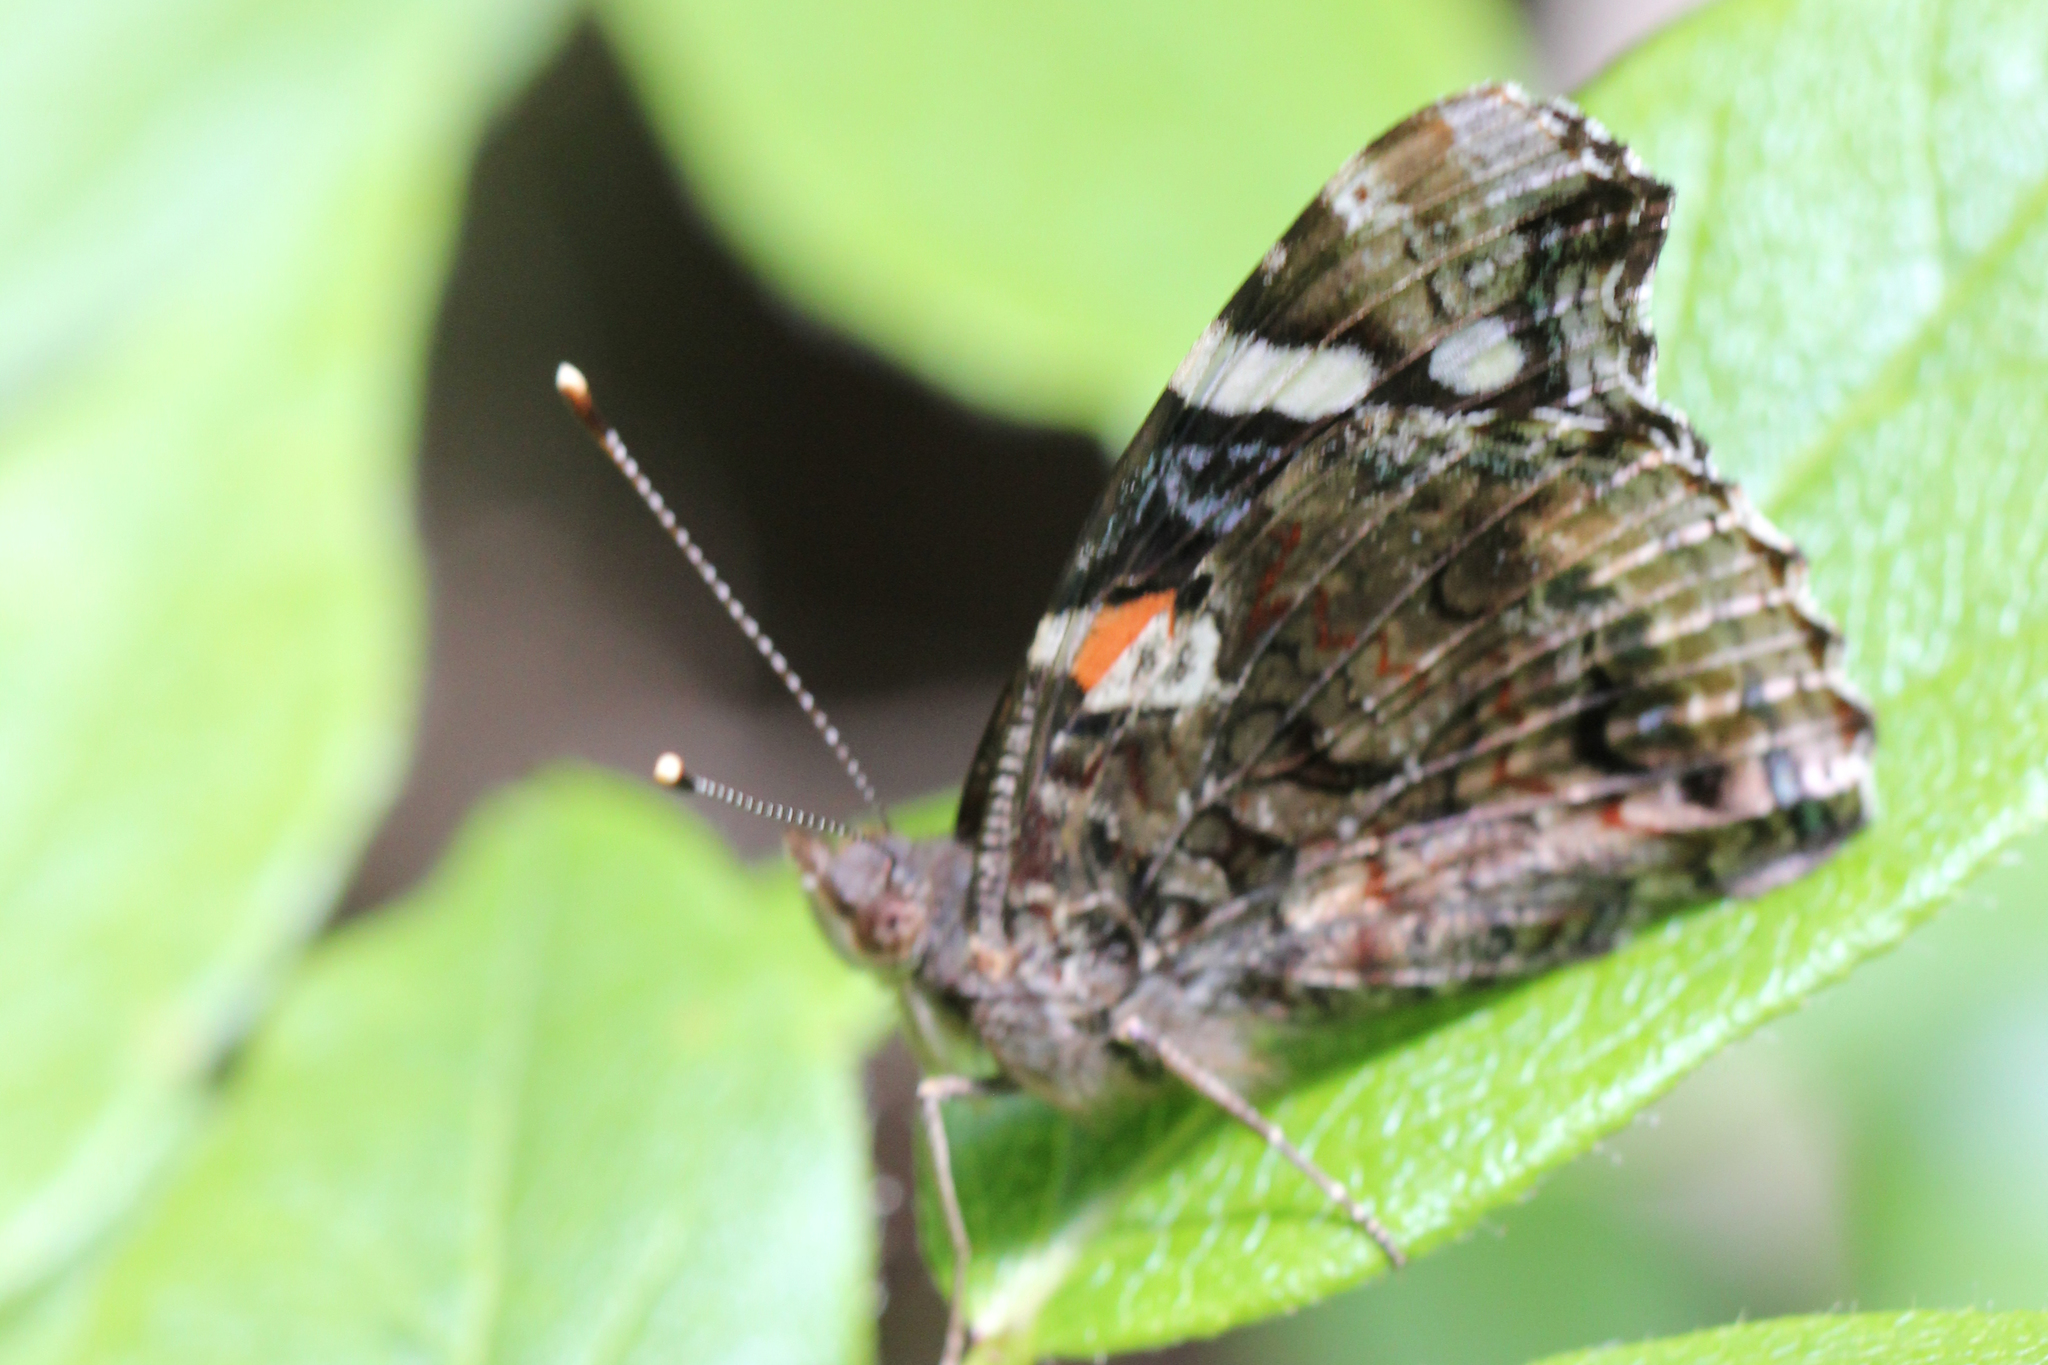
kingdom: Animalia
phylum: Arthropoda
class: Insecta
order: Lepidoptera
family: Nymphalidae
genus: Vanessa
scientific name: Vanessa atalanta
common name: Red admiral
